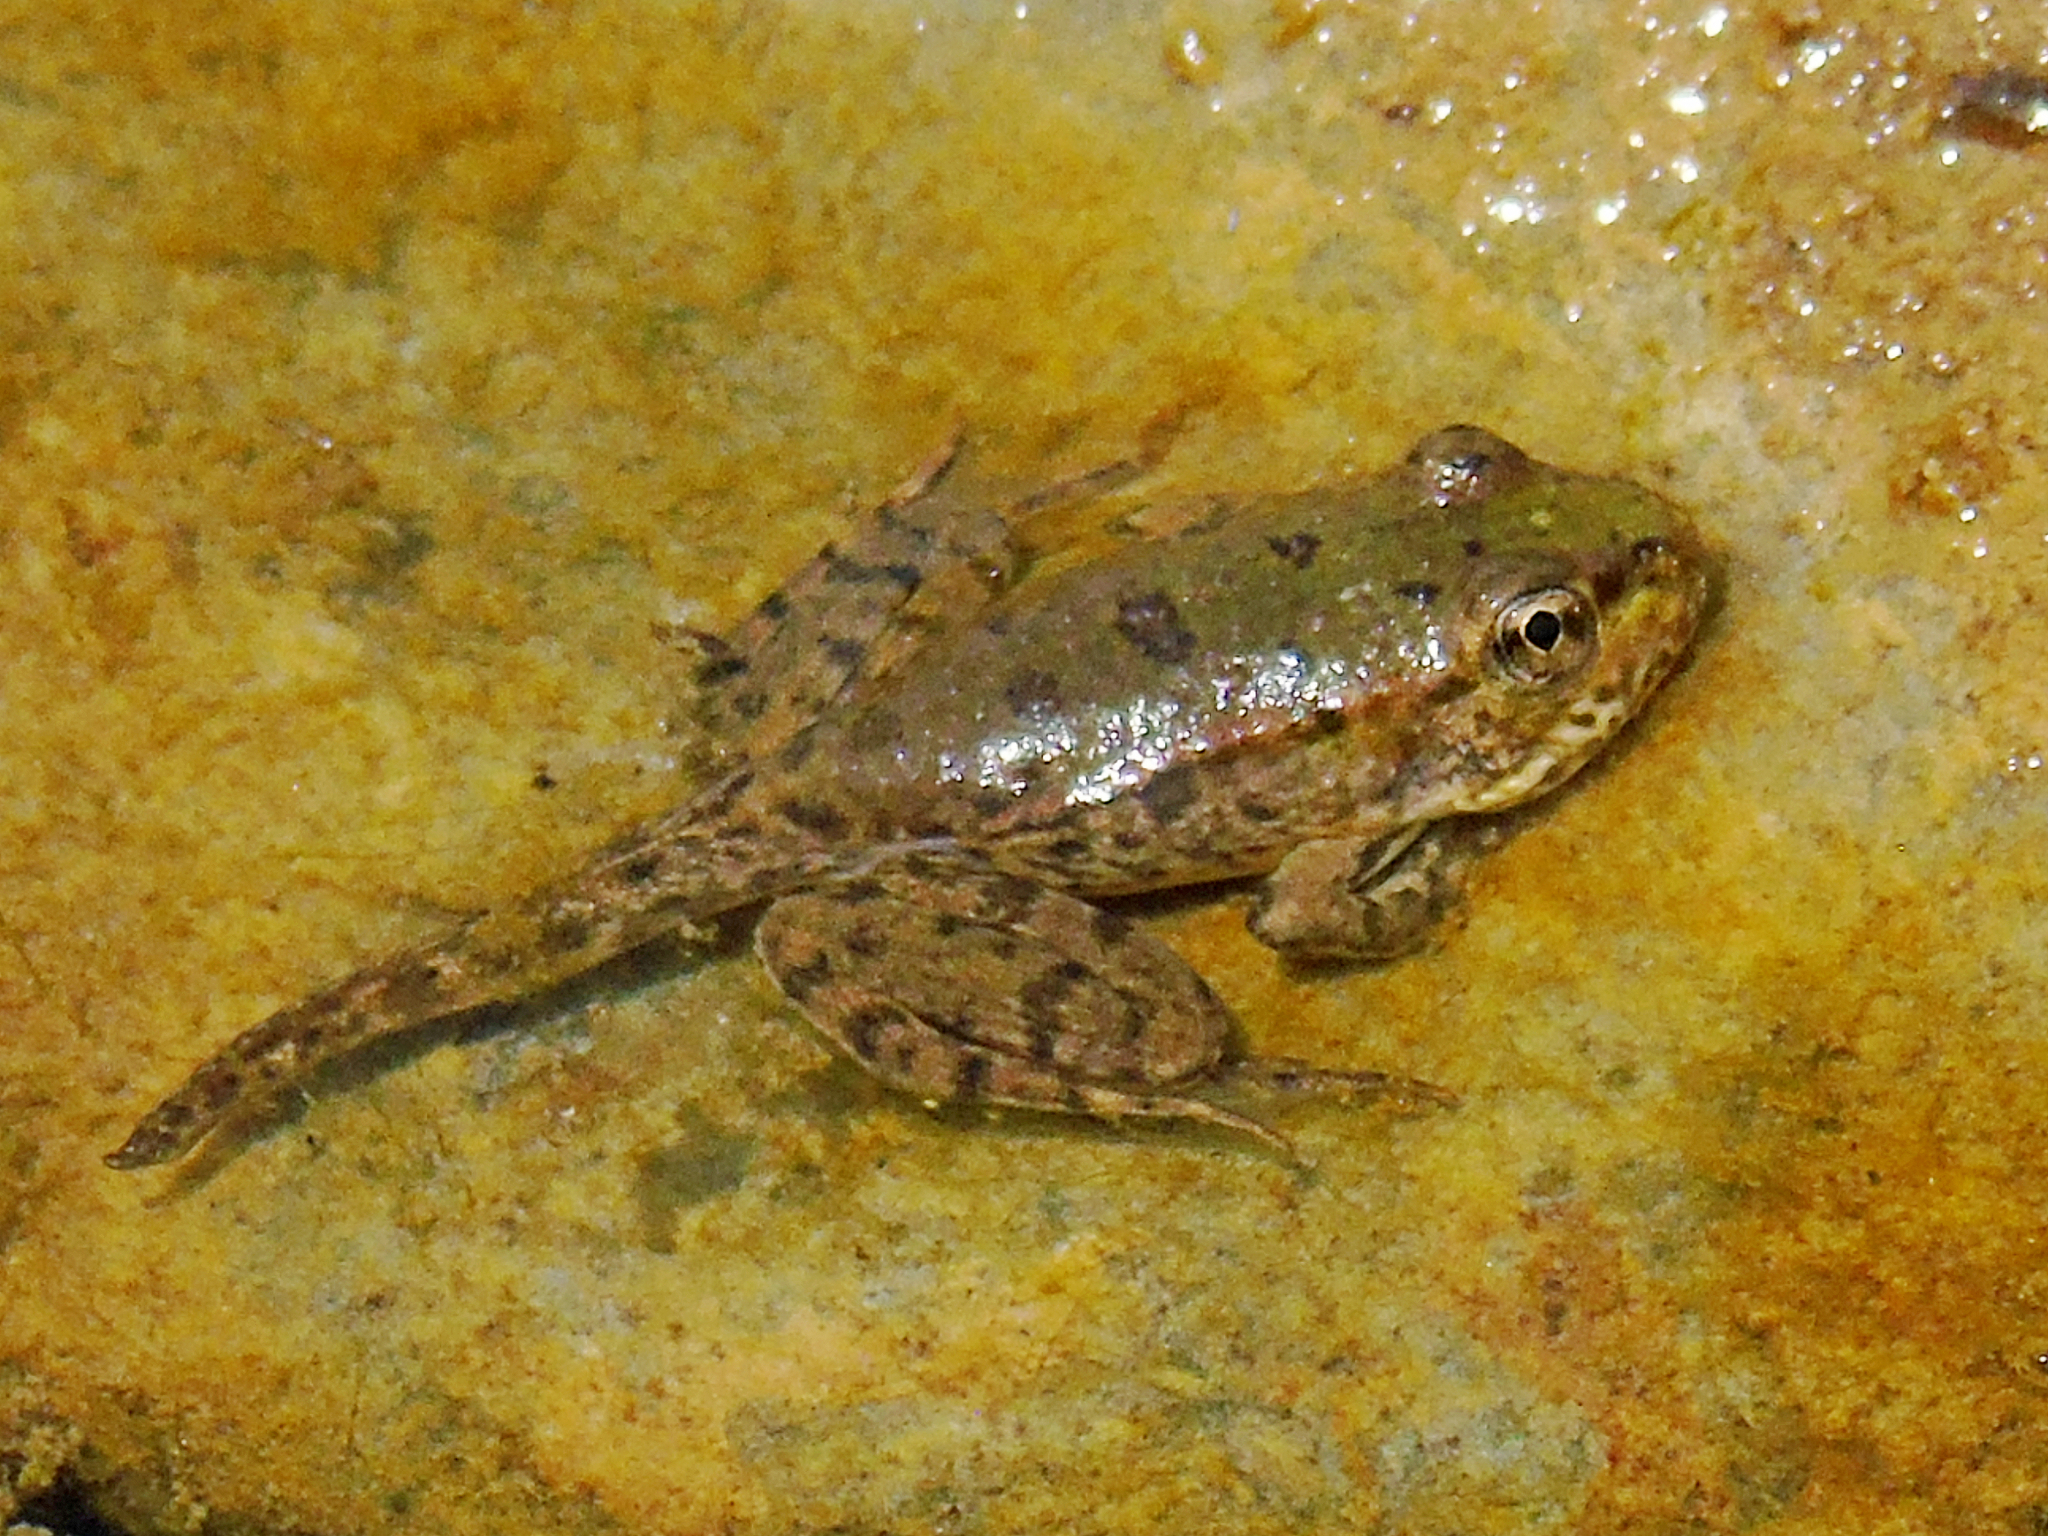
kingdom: Animalia
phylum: Chordata
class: Amphibia
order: Anura
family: Ranidae
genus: Pelophylax
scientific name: Pelophylax ridibundus
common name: Marsh frog
